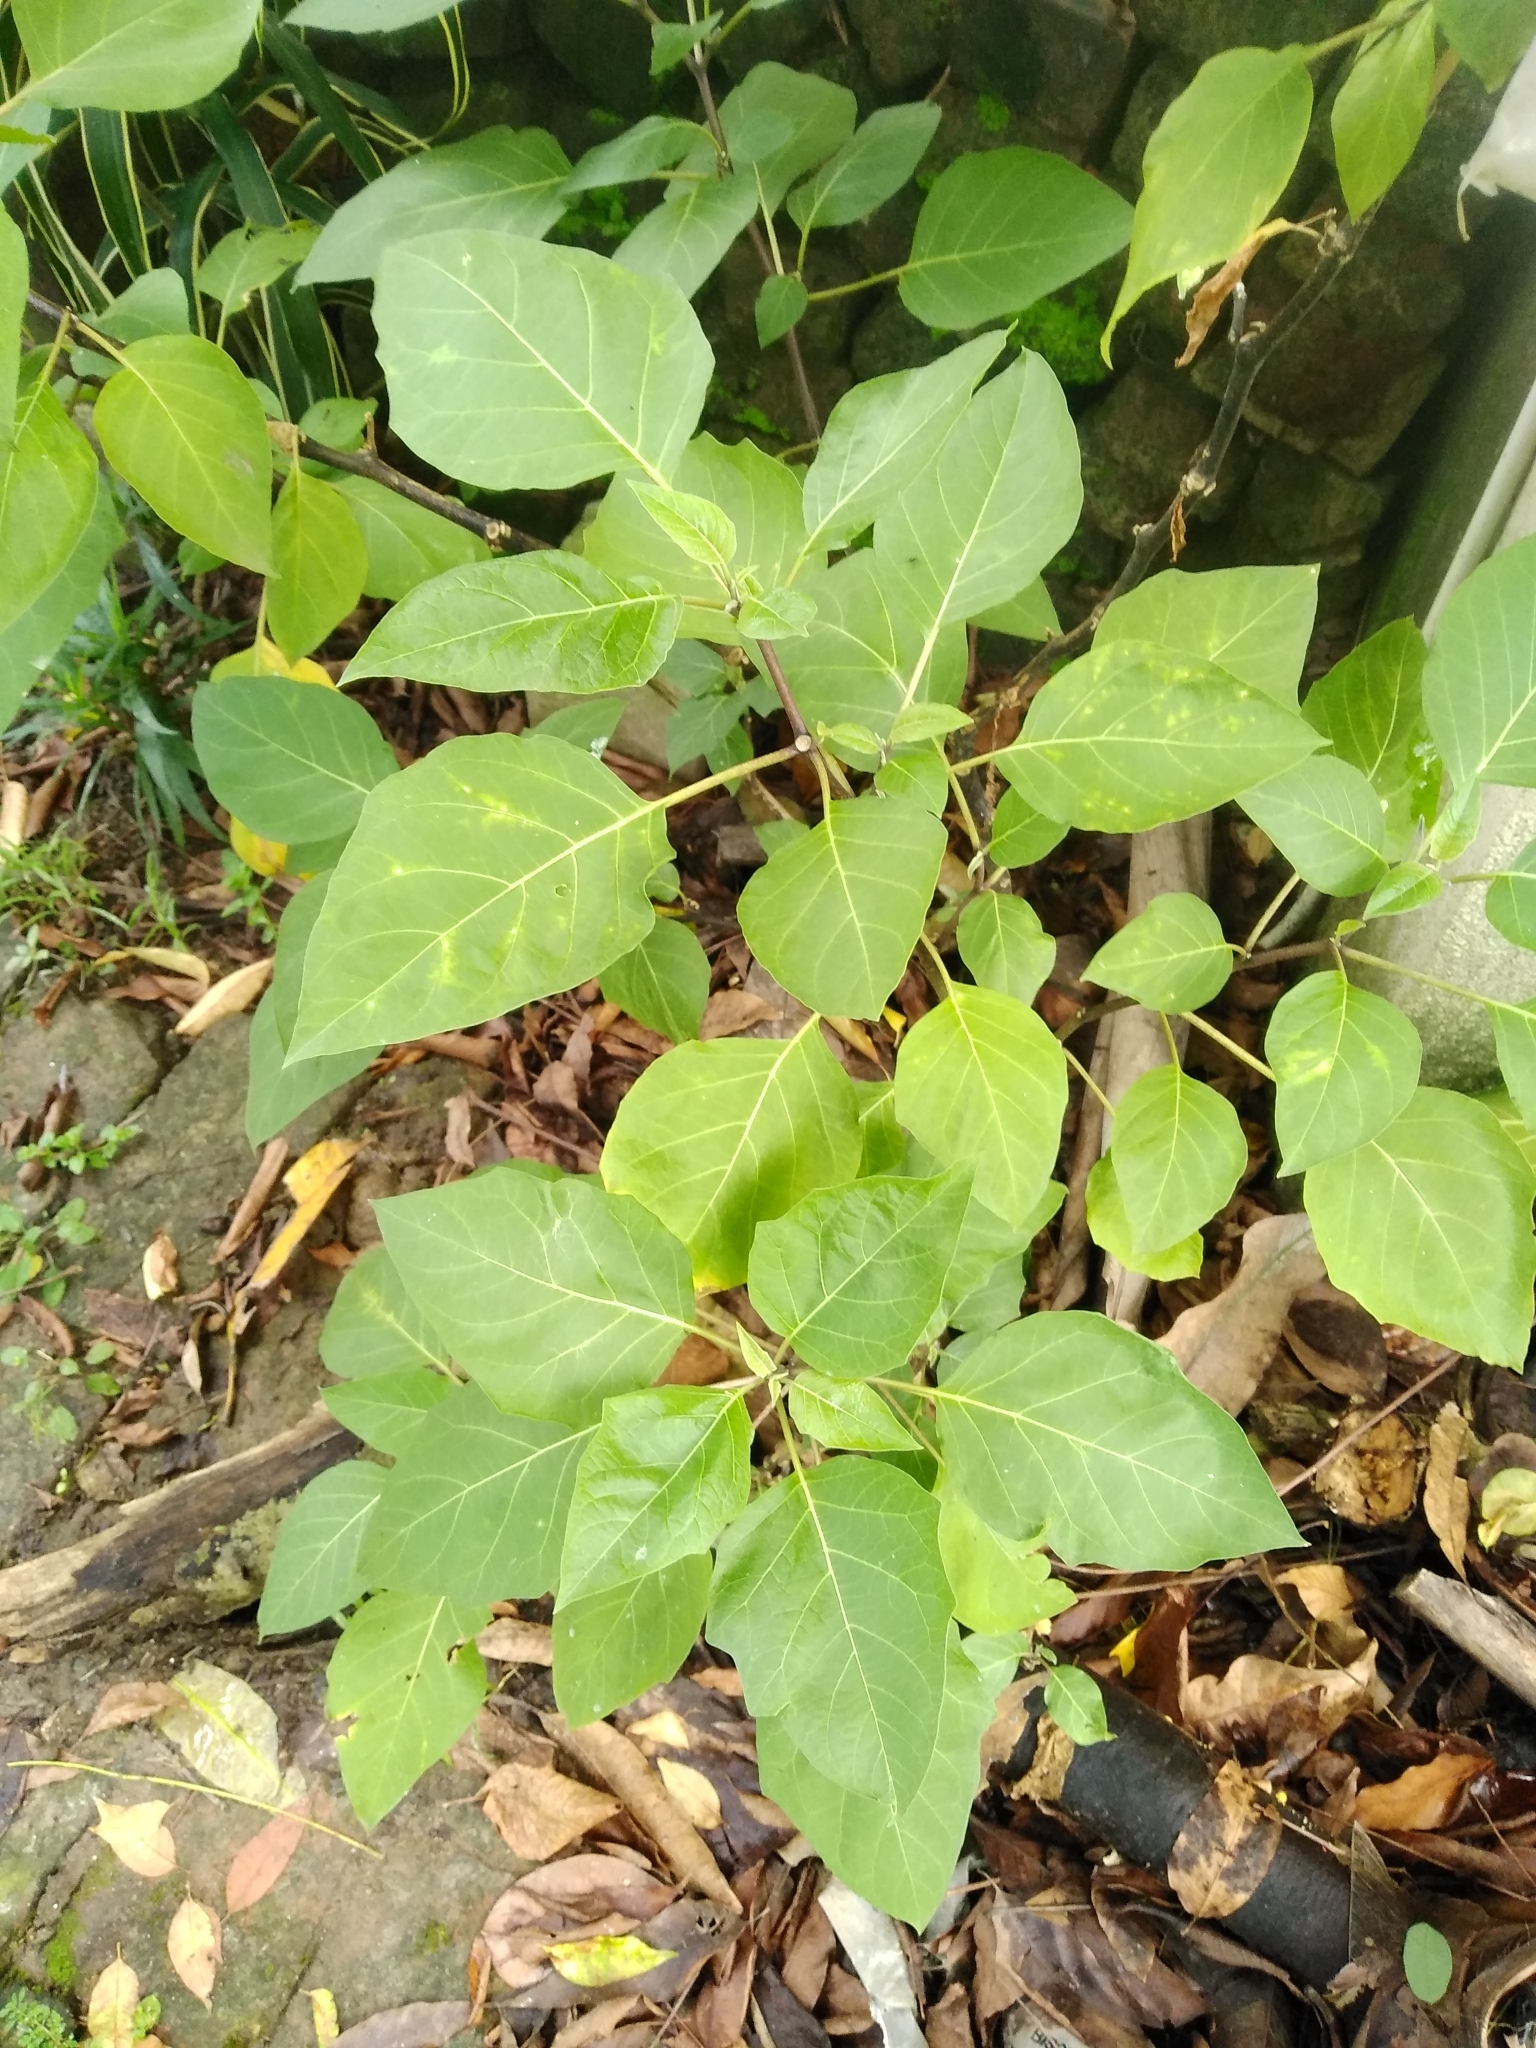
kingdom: Plantae
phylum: Tracheophyta
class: Magnoliopsida
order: Solanales
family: Solanaceae
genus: Datura
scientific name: Datura
